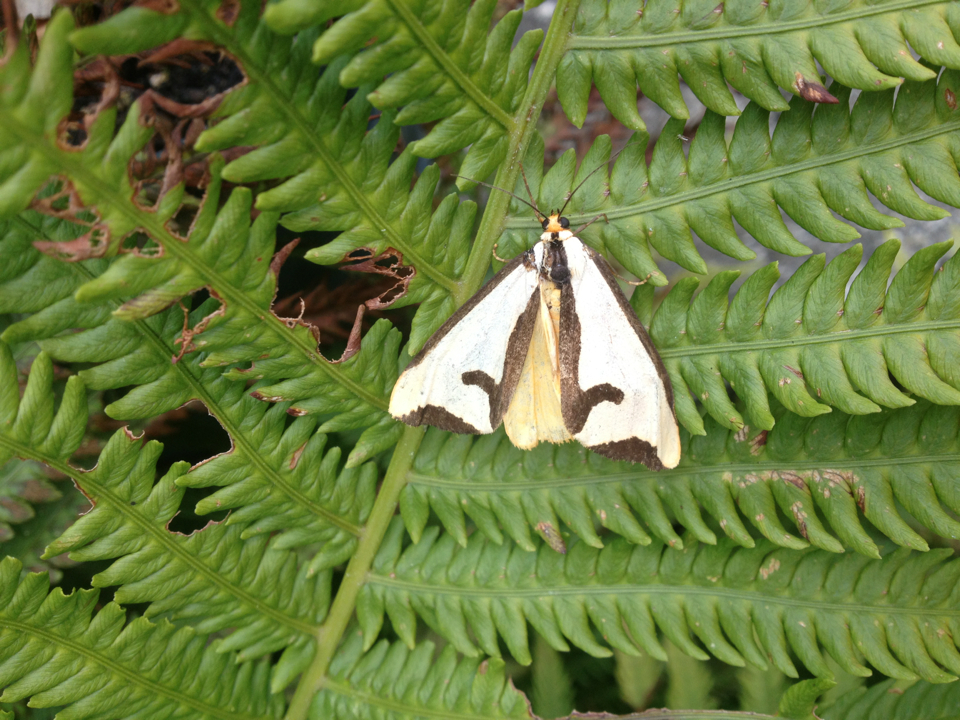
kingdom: Animalia
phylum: Arthropoda
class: Insecta
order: Lepidoptera
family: Erebidae
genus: Haploa
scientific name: Haploa clymene
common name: Clymene moth
